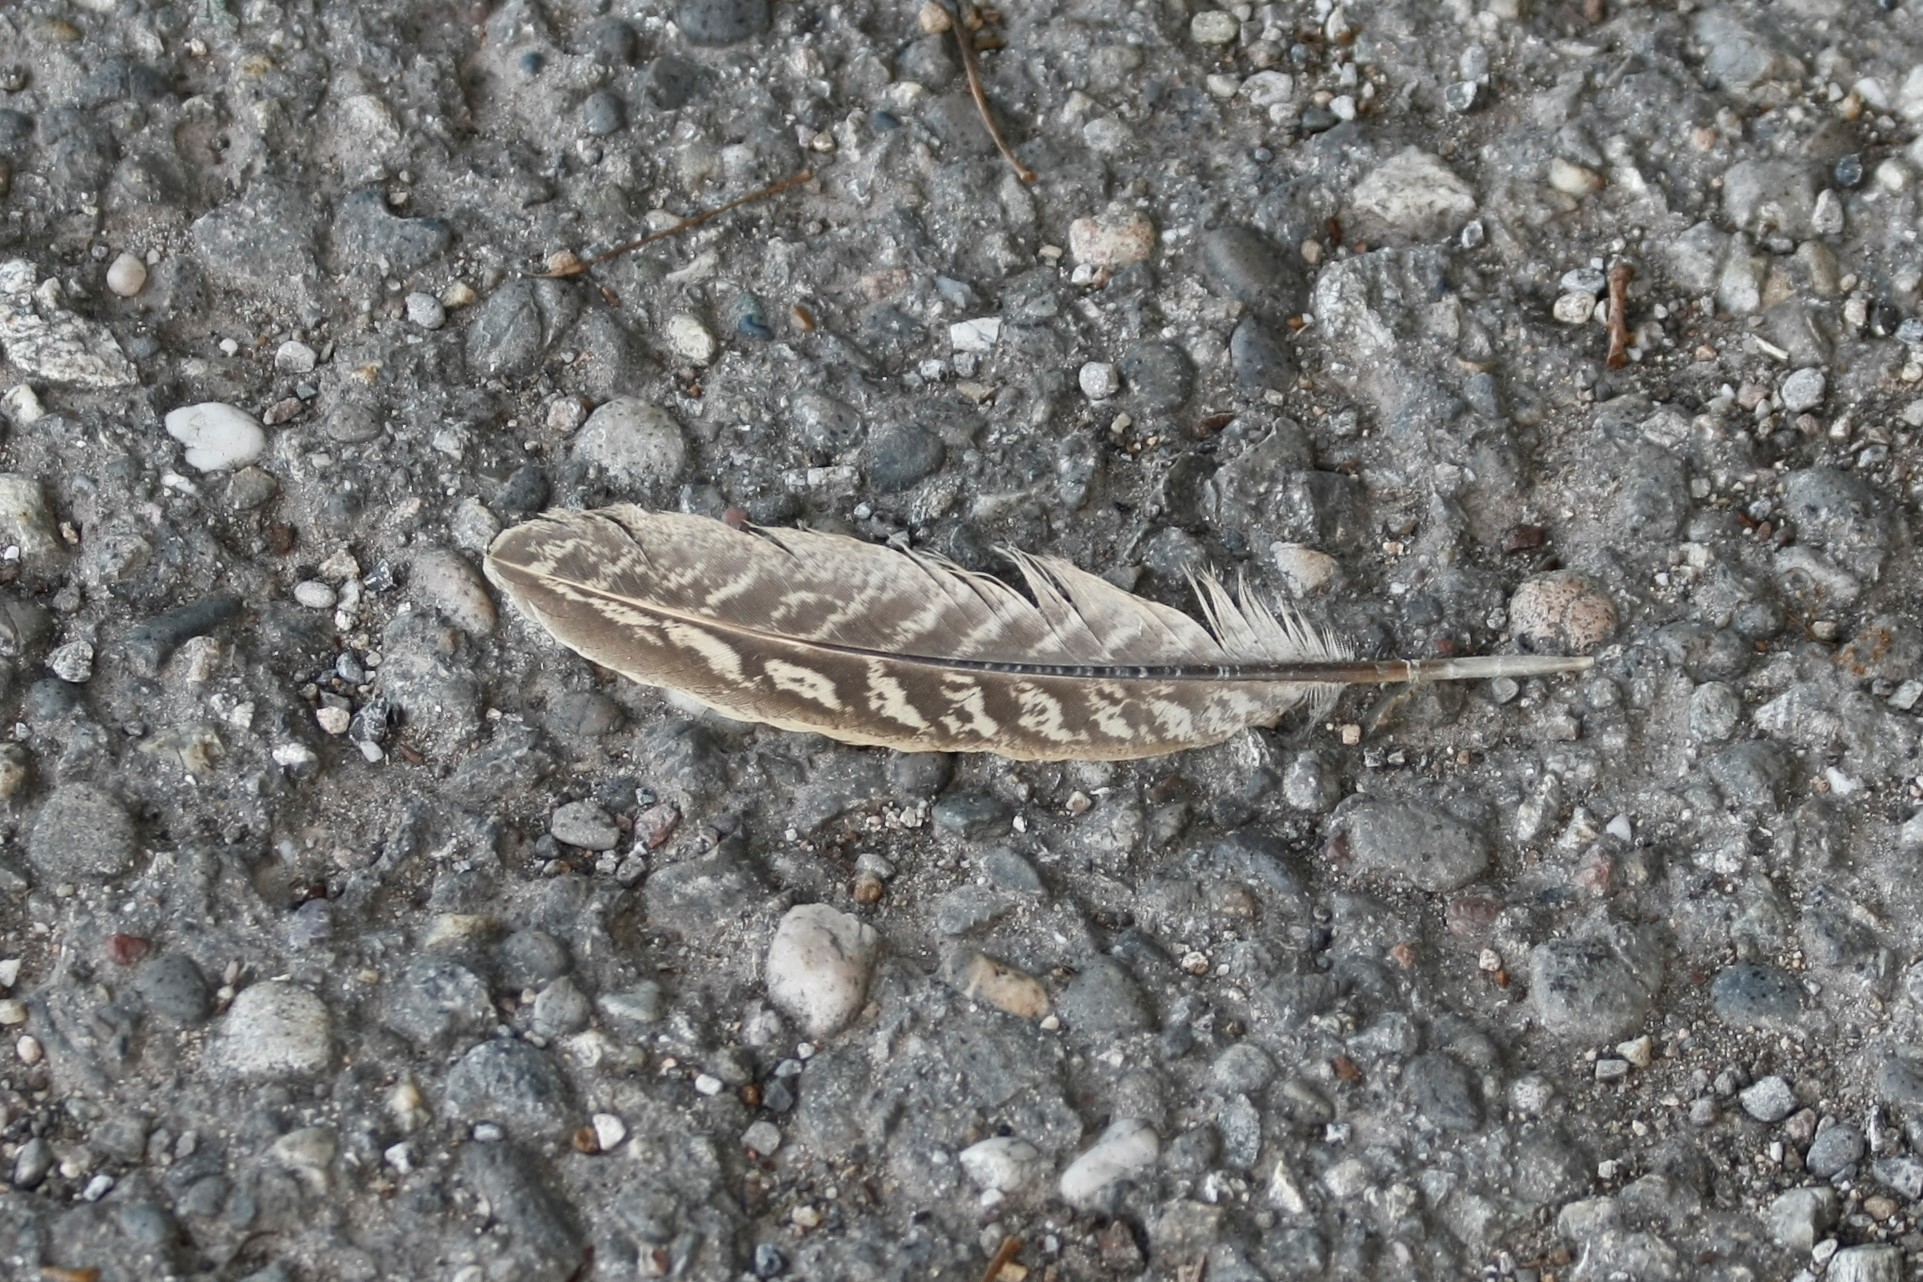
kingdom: Animalia
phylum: Chordata
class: Aves
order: Galliformes
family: Phasianidae
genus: Phasianus
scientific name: Phasianus colchicus
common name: Common pheasant
